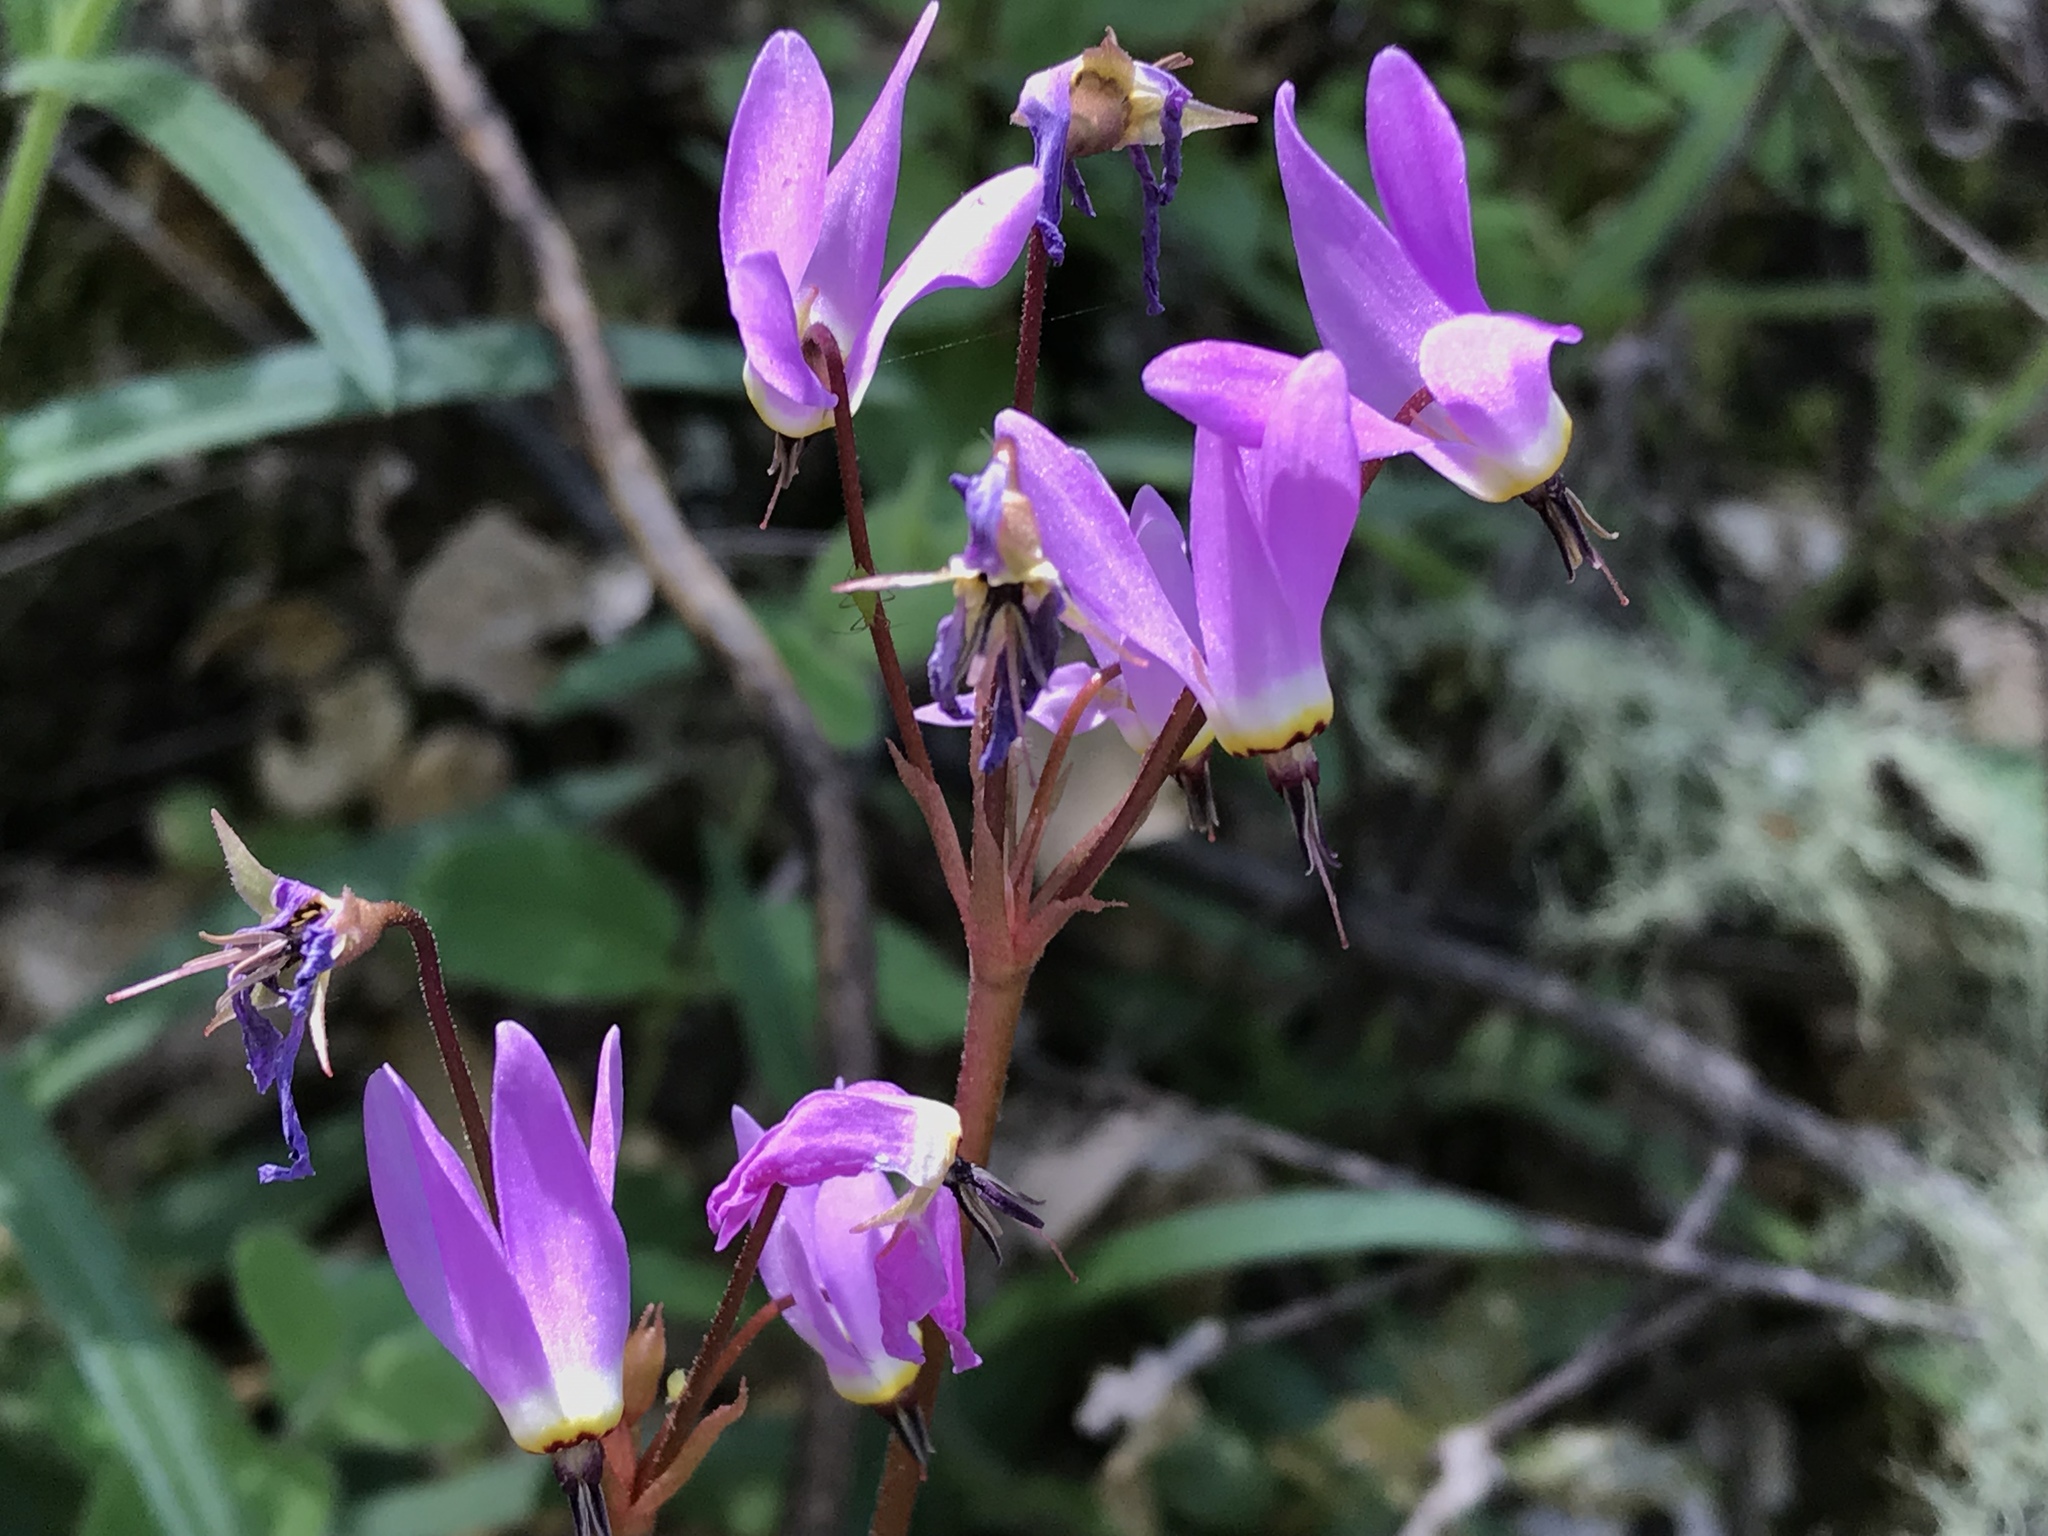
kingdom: Plantae
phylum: Tracheophyta
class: Magnoliopsida
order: Ericales
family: Primulaceae
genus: Dodecatheon
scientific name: Dodecatheon hendersonii
